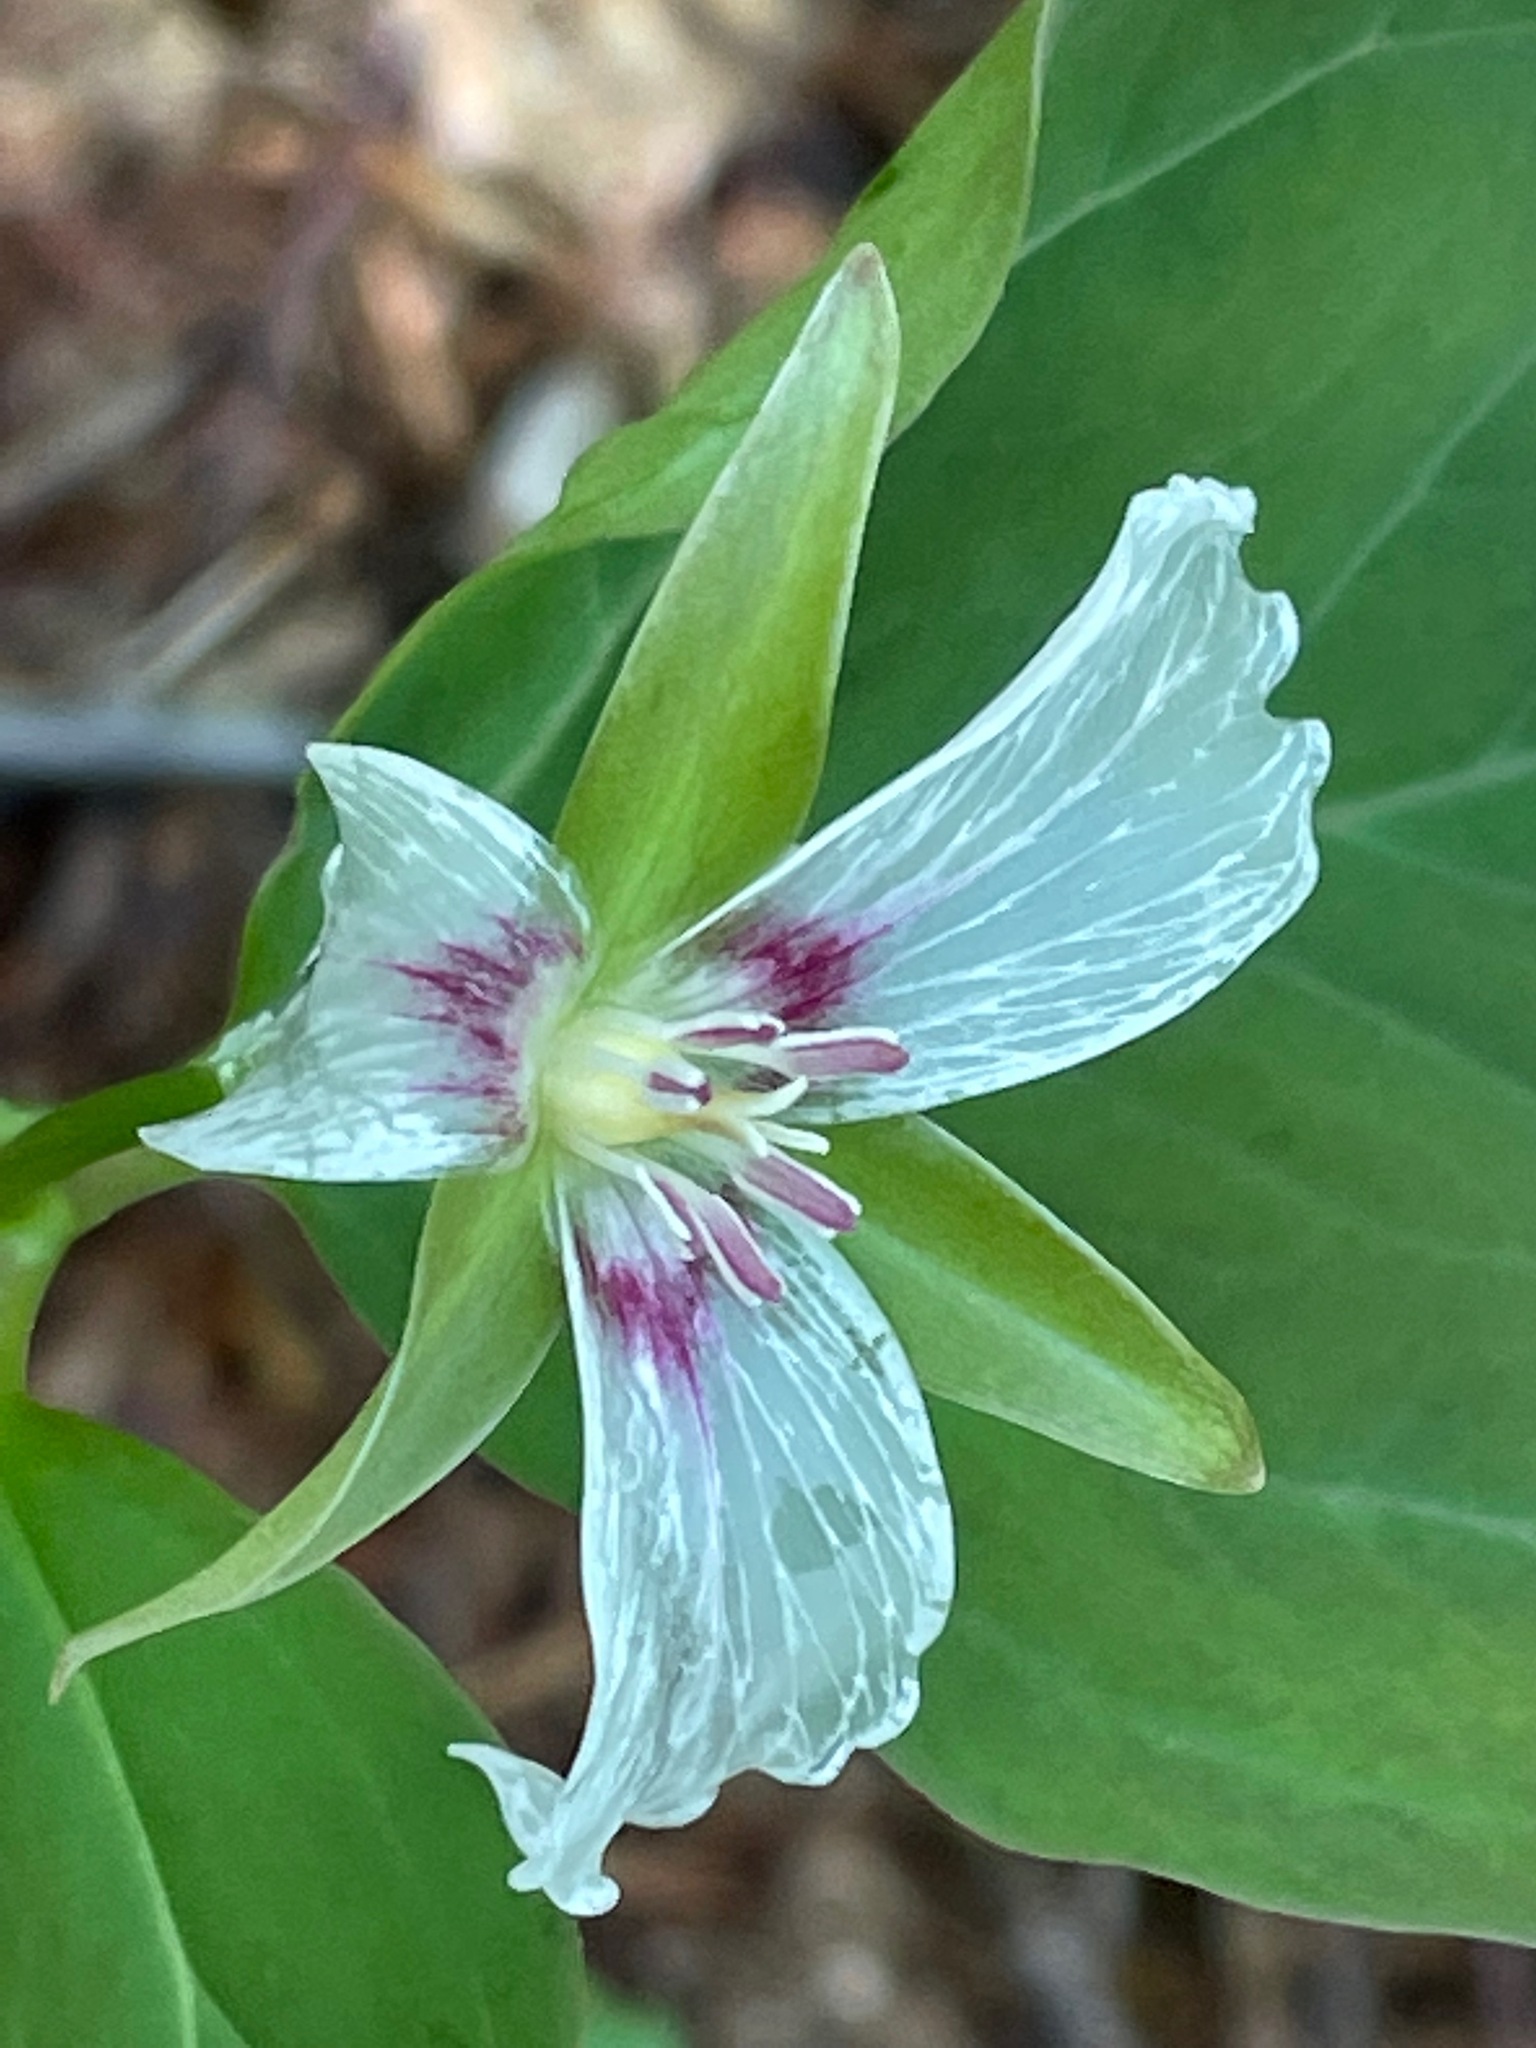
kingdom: Plantae
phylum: Tracheophyta
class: Liliopsida
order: Liliales
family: Melanthiaceae
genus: Trillium
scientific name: Trillium undulatum
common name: Paint trillium
